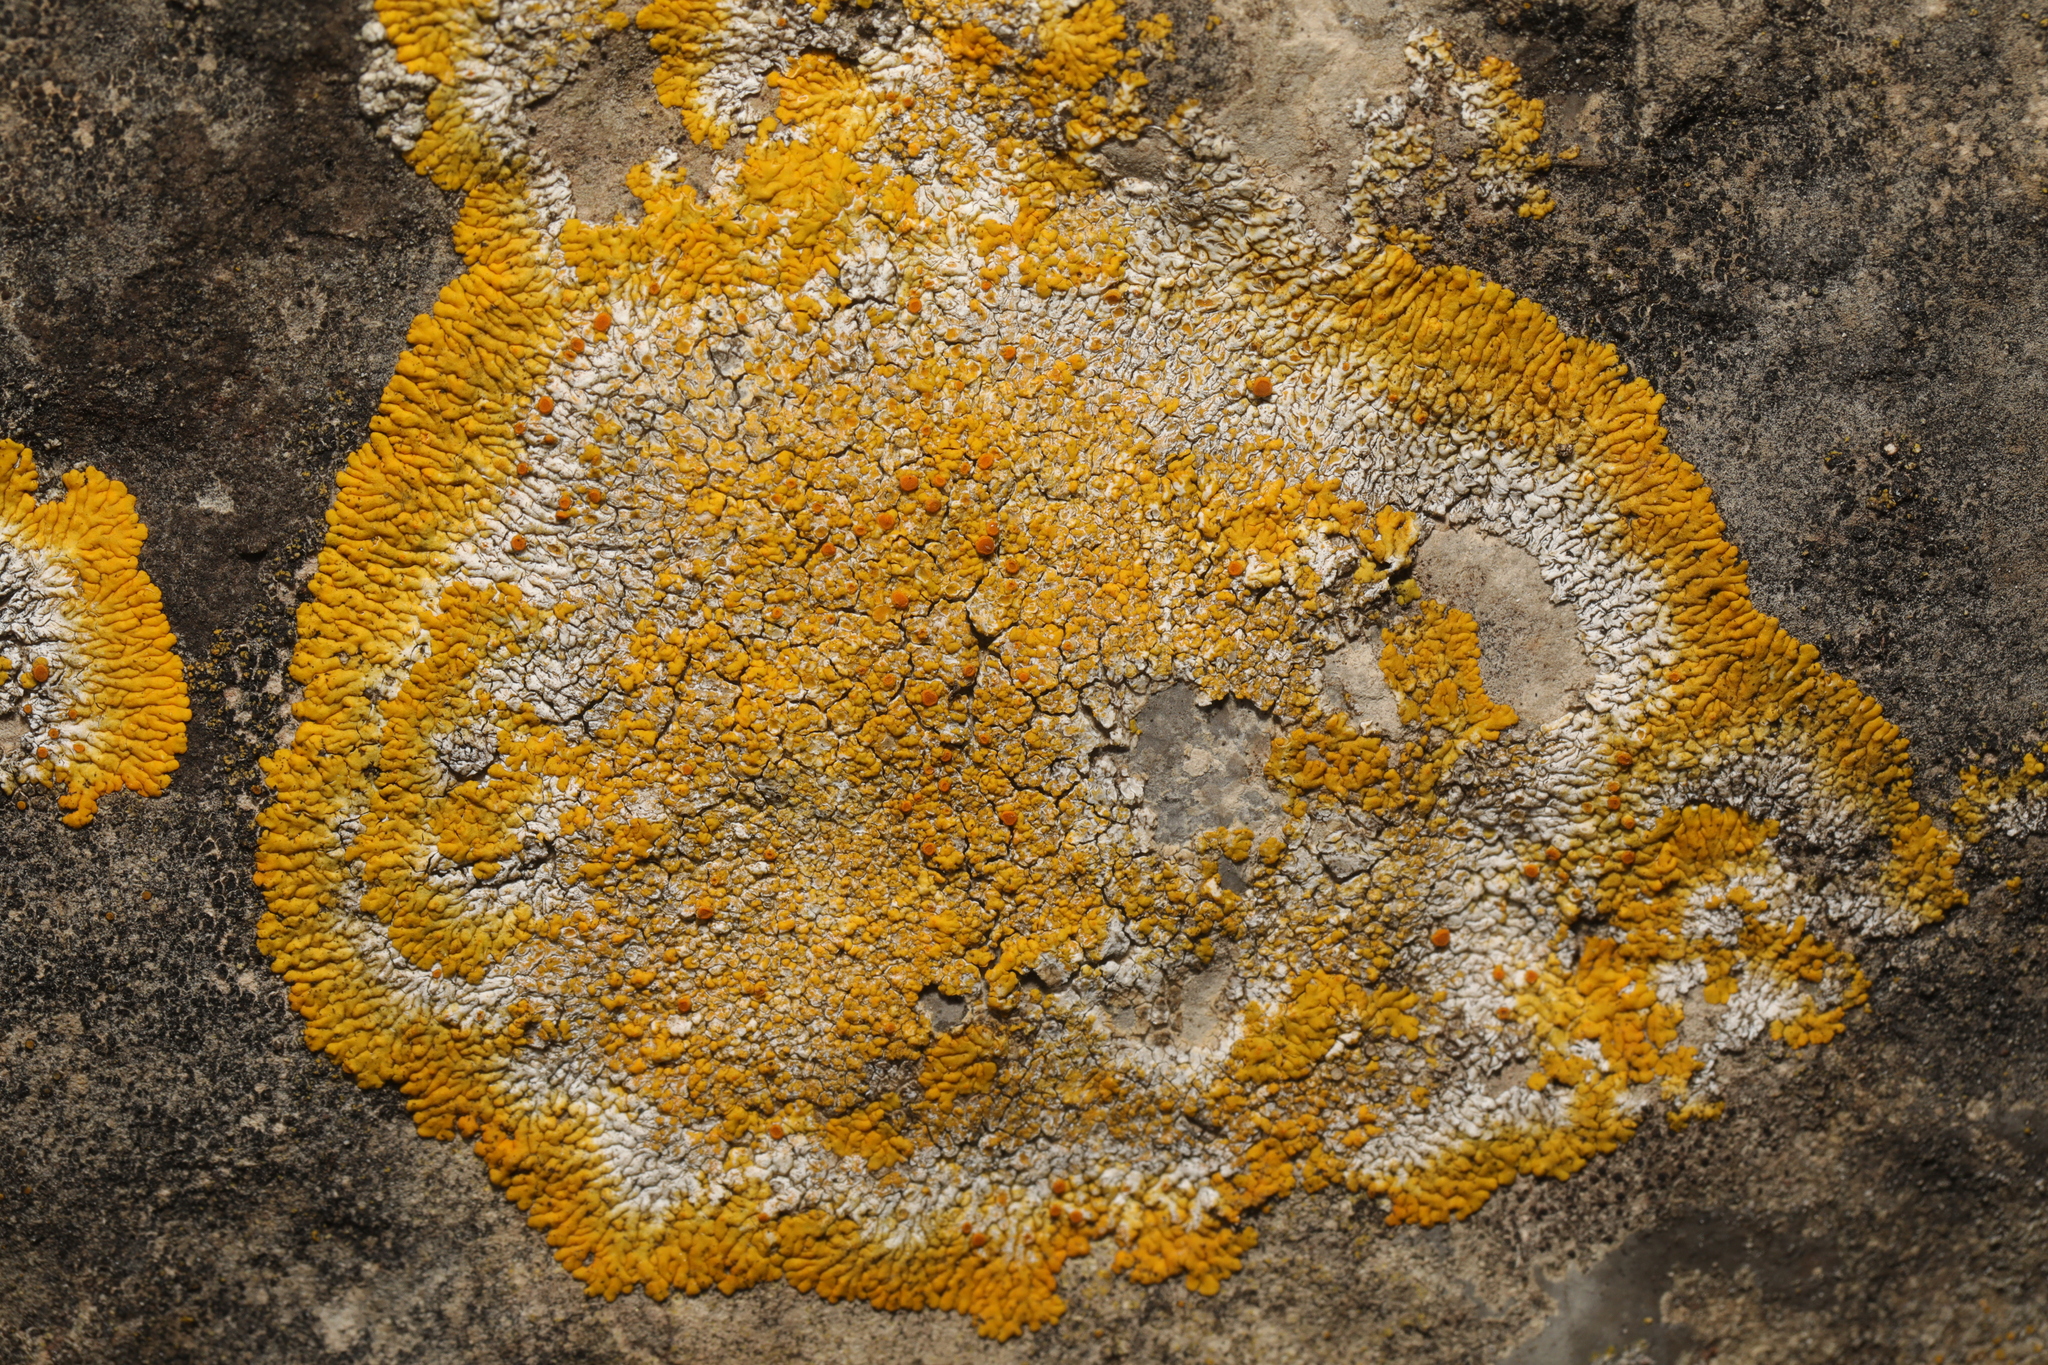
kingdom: Fungi
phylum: Ascomycota
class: Lecanoromycetes
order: Teloschistales
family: Teloschistaceae
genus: Variospora
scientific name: Variospora flavescens
